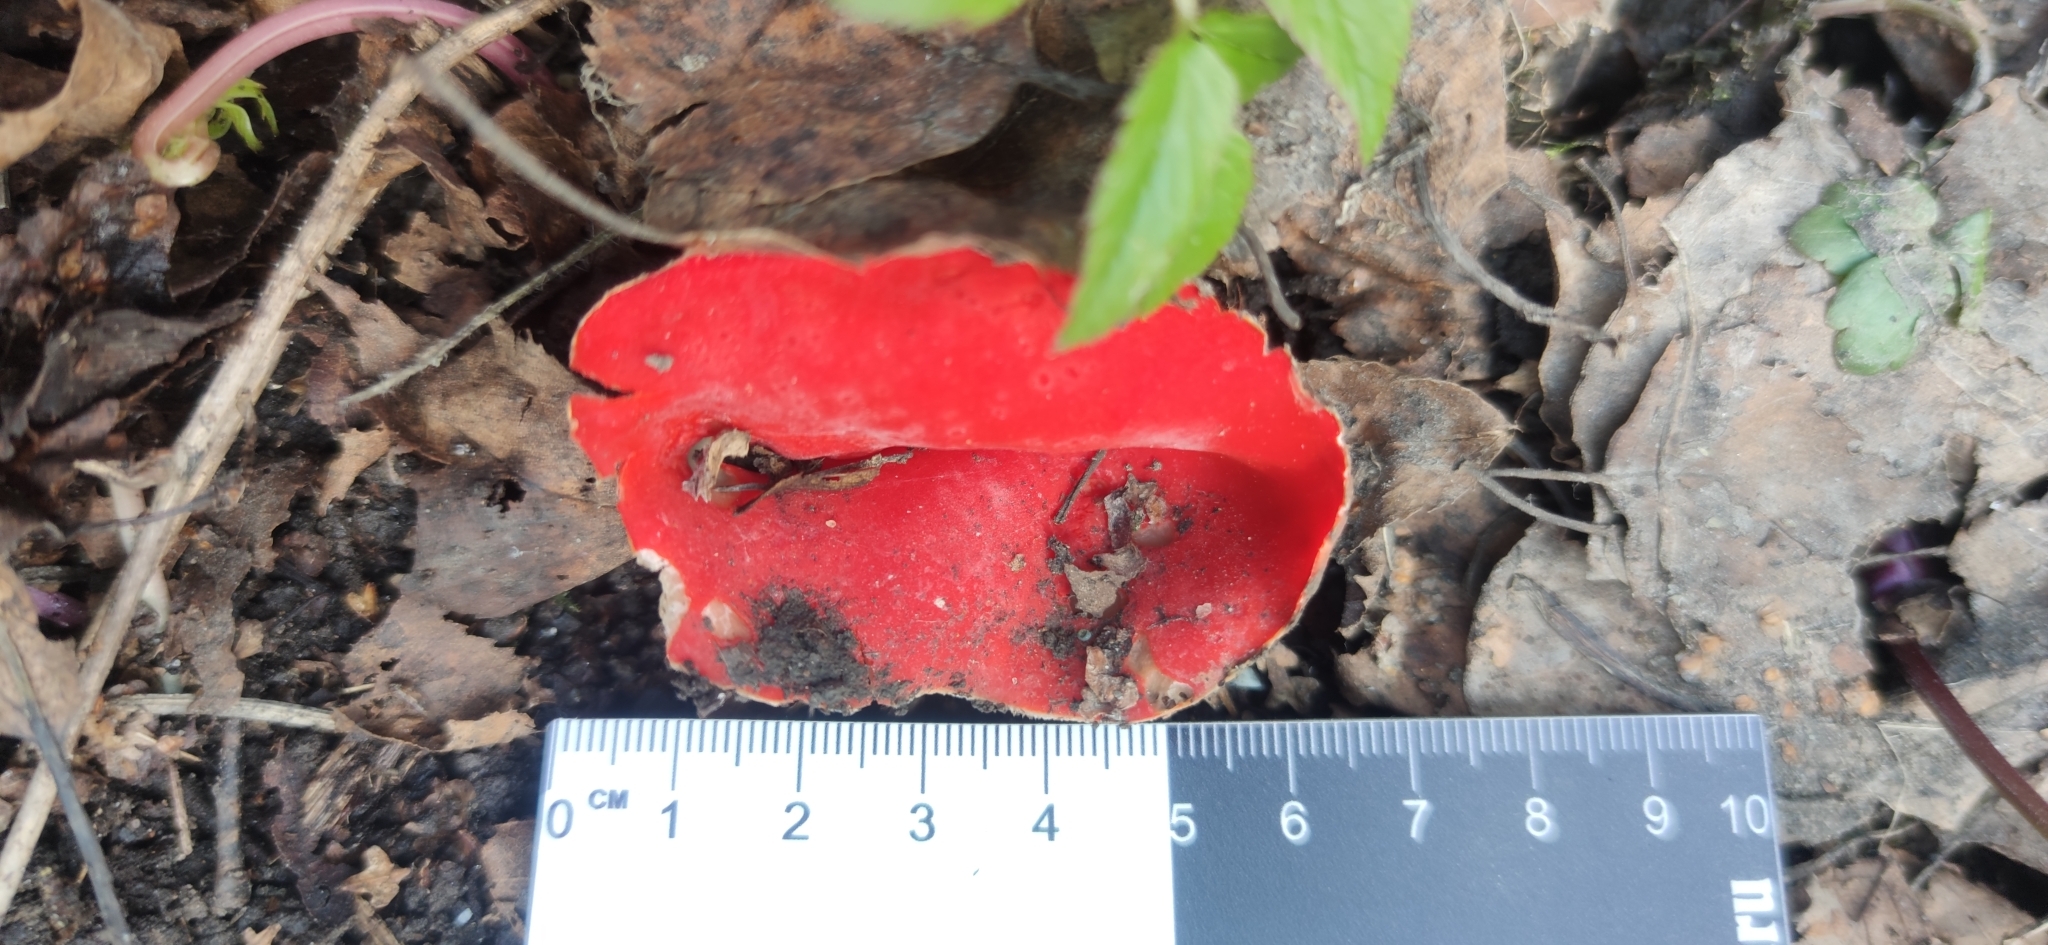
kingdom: Fungi
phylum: Ascomycota
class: Pezizomycetes
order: Pezizales
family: Sarcoscyphaceae
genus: Sarcoscypha
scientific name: Sarcoscypha austriaca
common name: Scarlet elfcup
